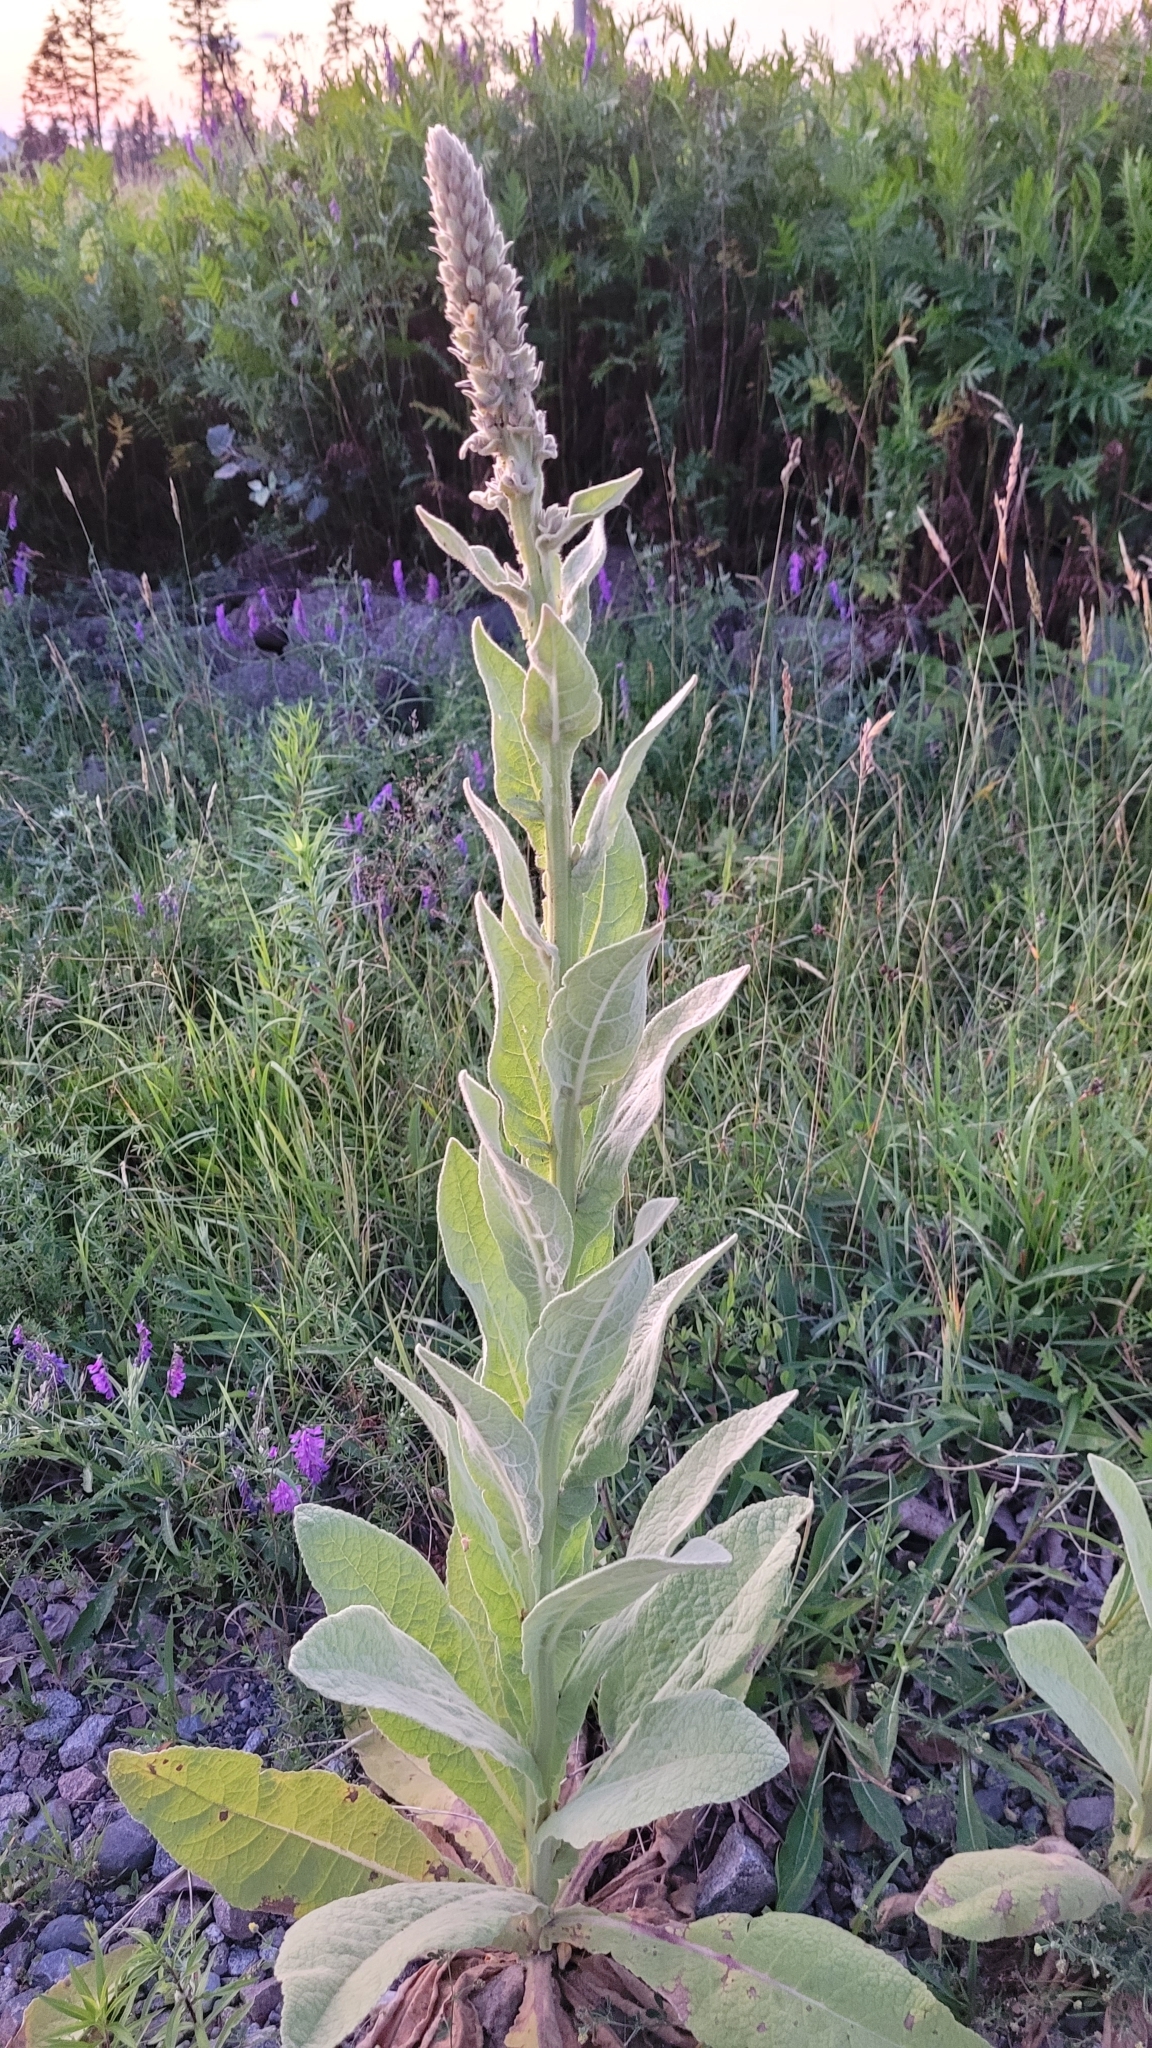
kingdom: Plantae
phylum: Tracheophyta
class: Magnoliopsida
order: Lamiales
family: Scrophulariaceae
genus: Verbascum
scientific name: Verbascum thapsus
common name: Common mullein
